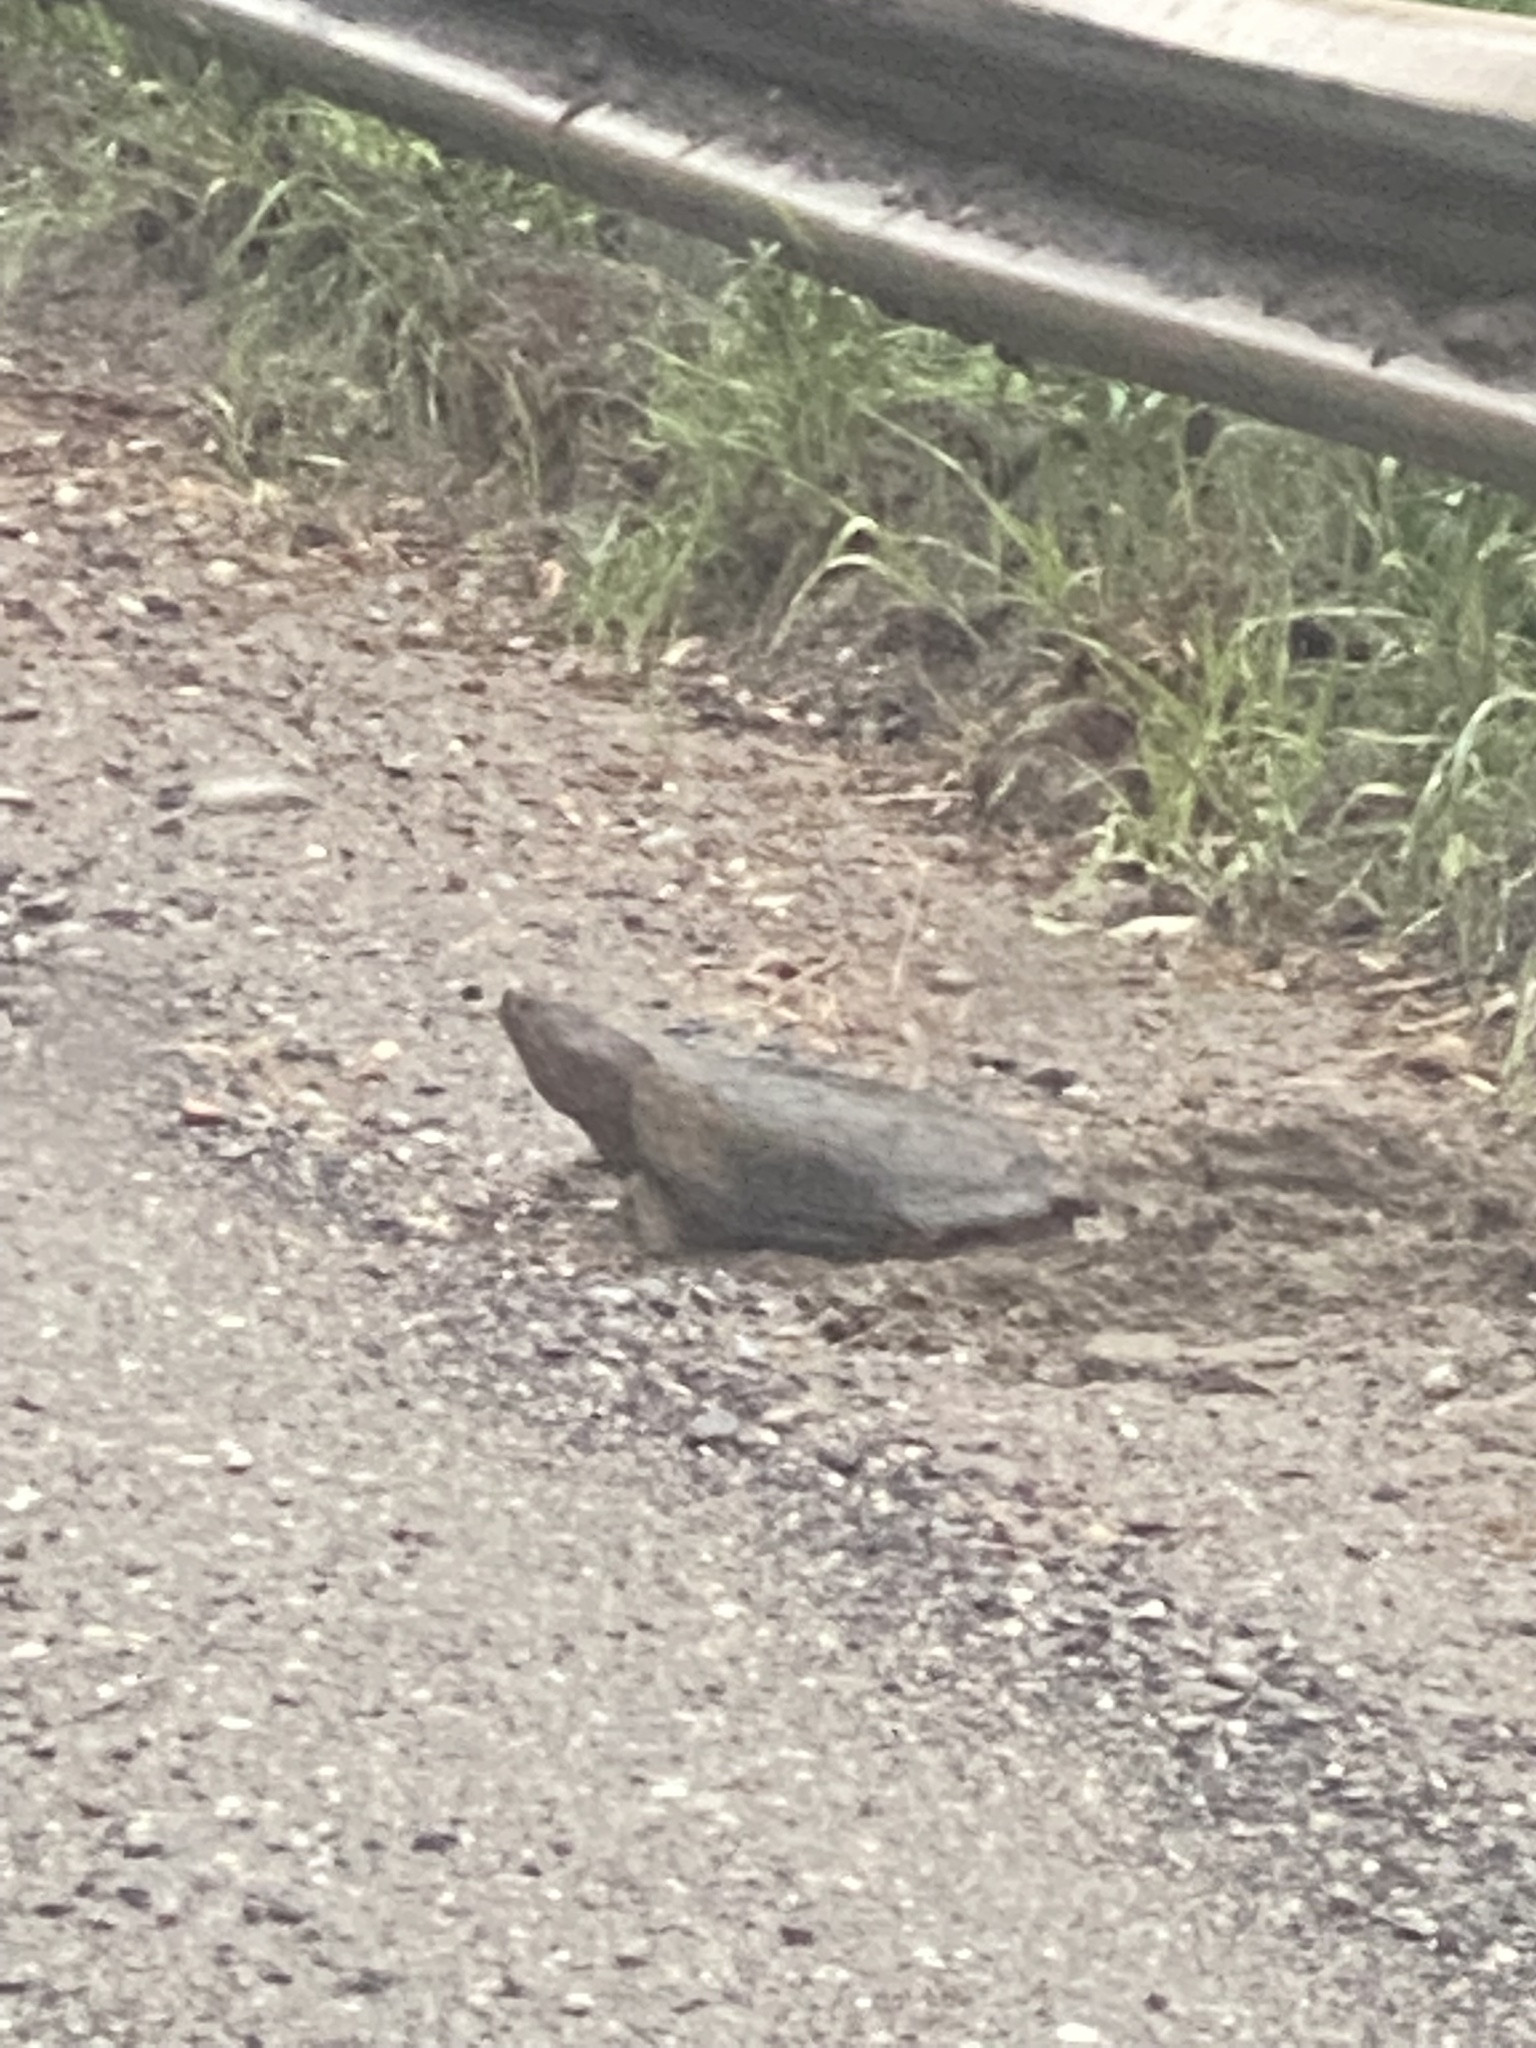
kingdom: Animalia
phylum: Chordata
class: Testudines
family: Chelydridae
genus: Chelydra
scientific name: Chelydra serpentina
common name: Common snapping turtle
